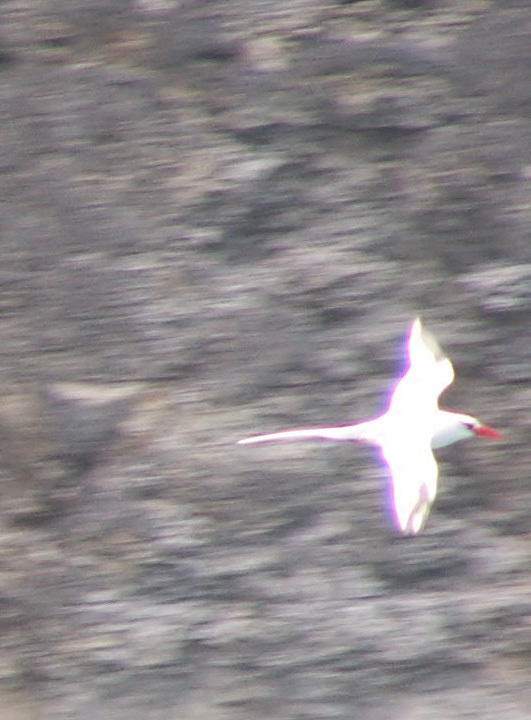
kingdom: Animalia
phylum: Chordata
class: Aves
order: Phaethontiformes
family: Phaethontidae
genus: Phaethon
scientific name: Phaethon aethereus
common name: Red-billed tropicbird
